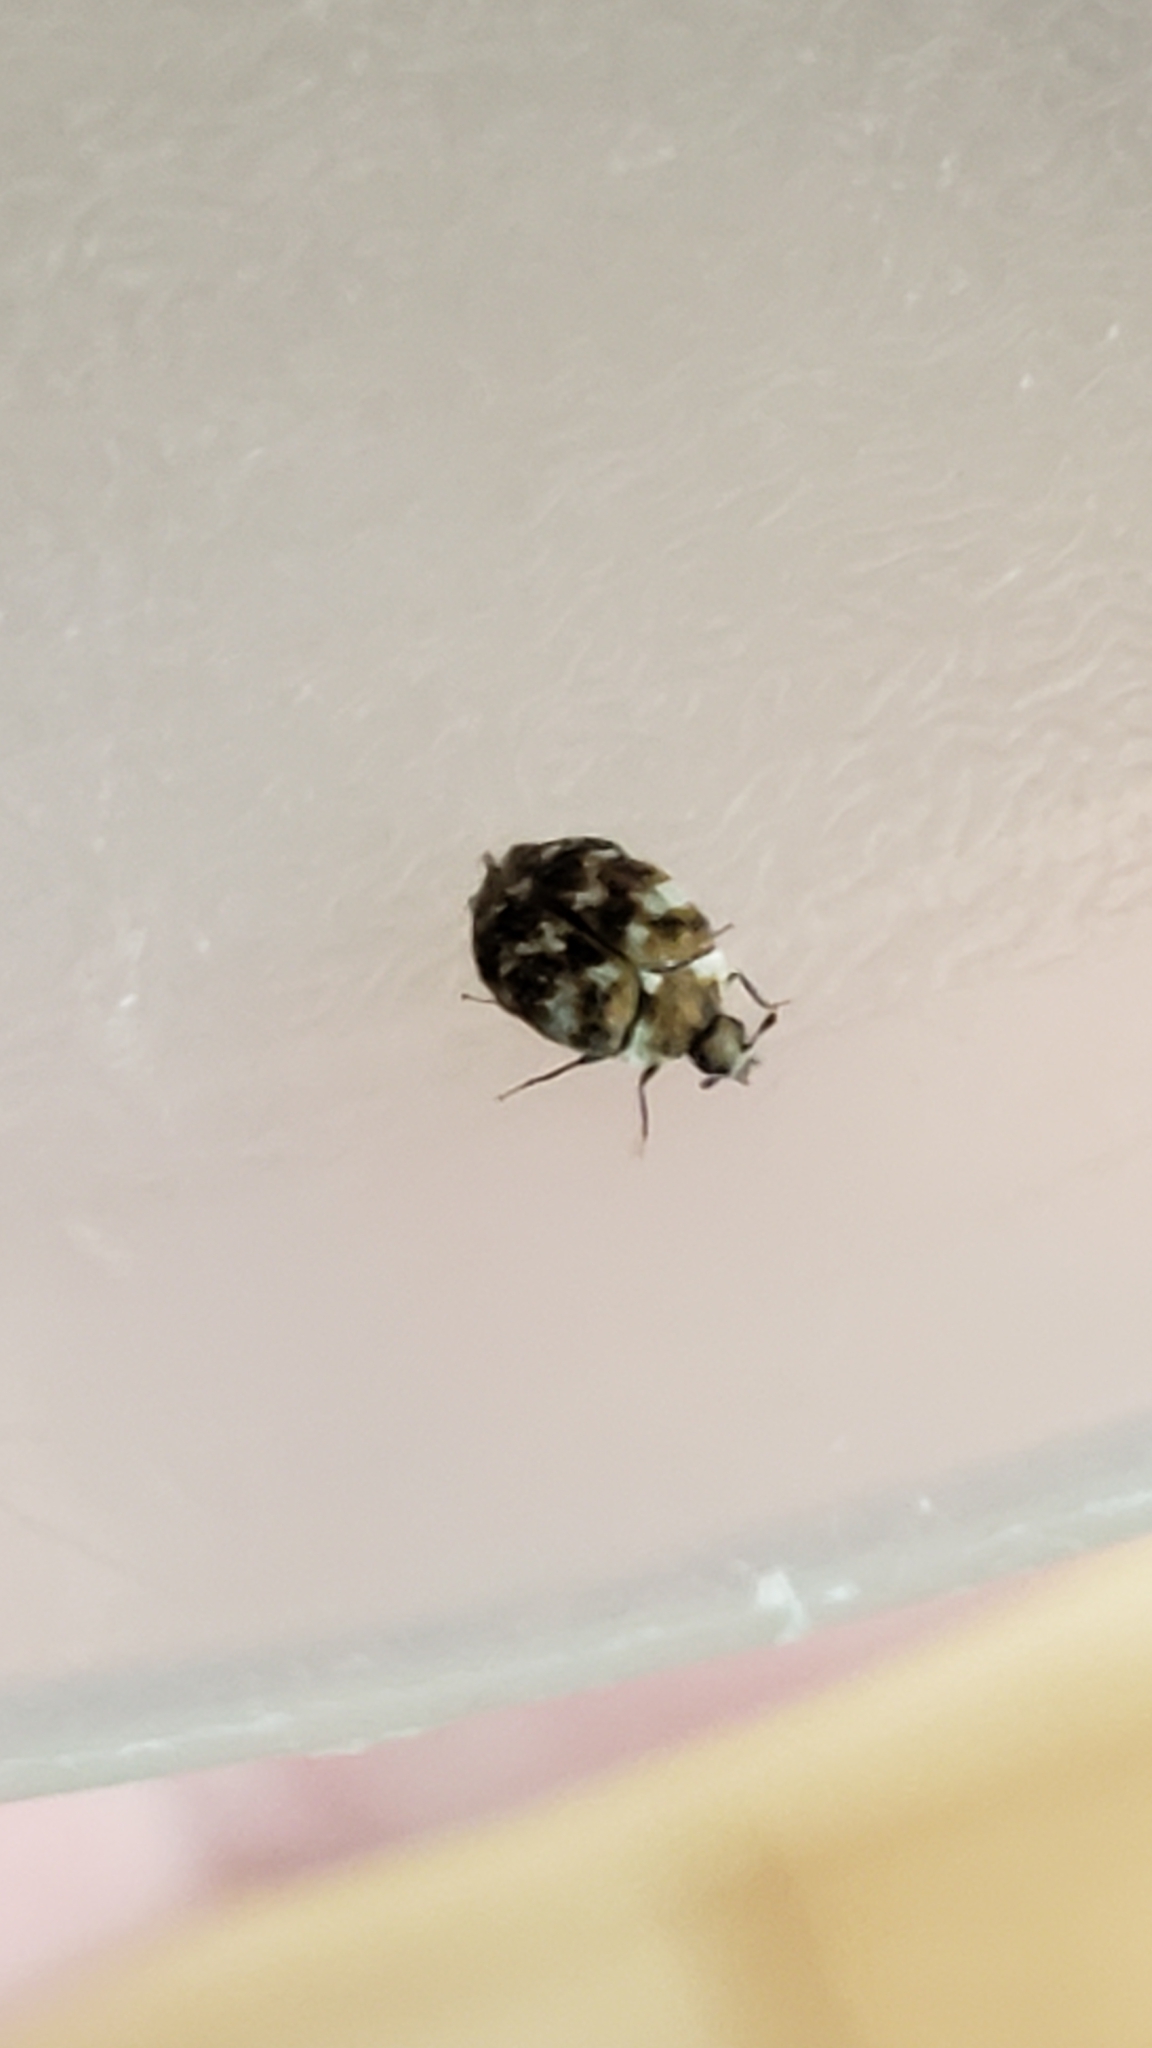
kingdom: Animalia
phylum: Arthropoda
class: Insecta
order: Coleoptera
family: Dermestidae
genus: Anthrenus
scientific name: Anthrenus verbasci
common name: Varied carpet beetle
